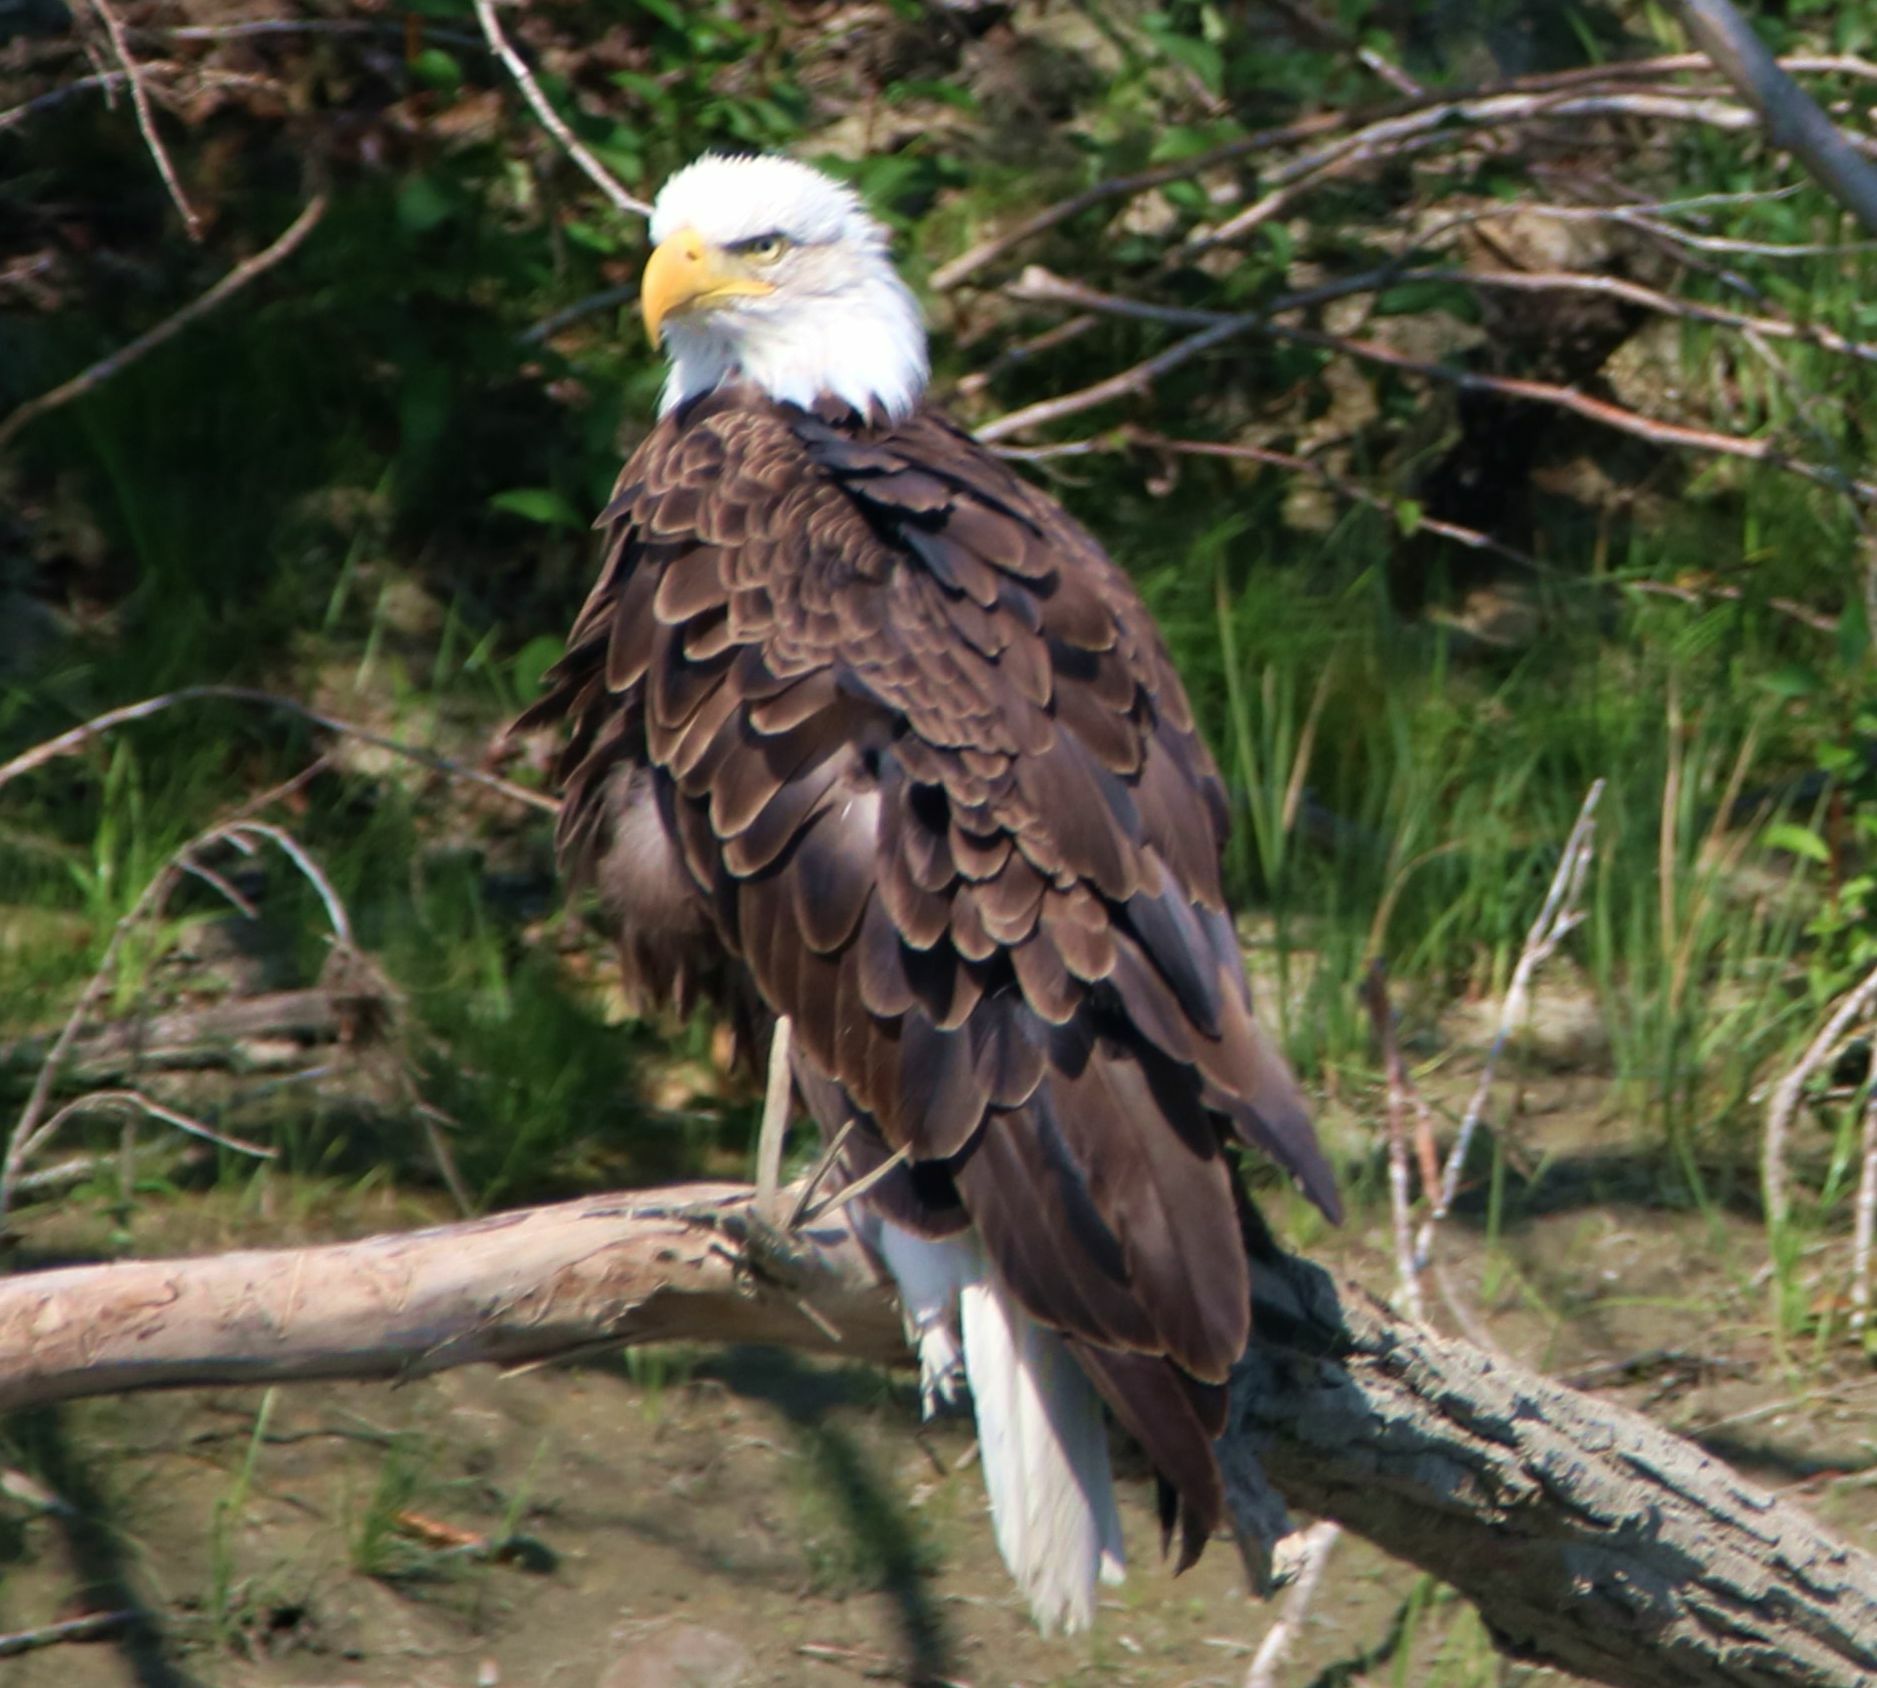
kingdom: Animalia
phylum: Chordata
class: Aves
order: Accipitriformes
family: Accipitridae
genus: Haliaeetus
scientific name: Haliaeetus leucocephalus
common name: Bald eagle
